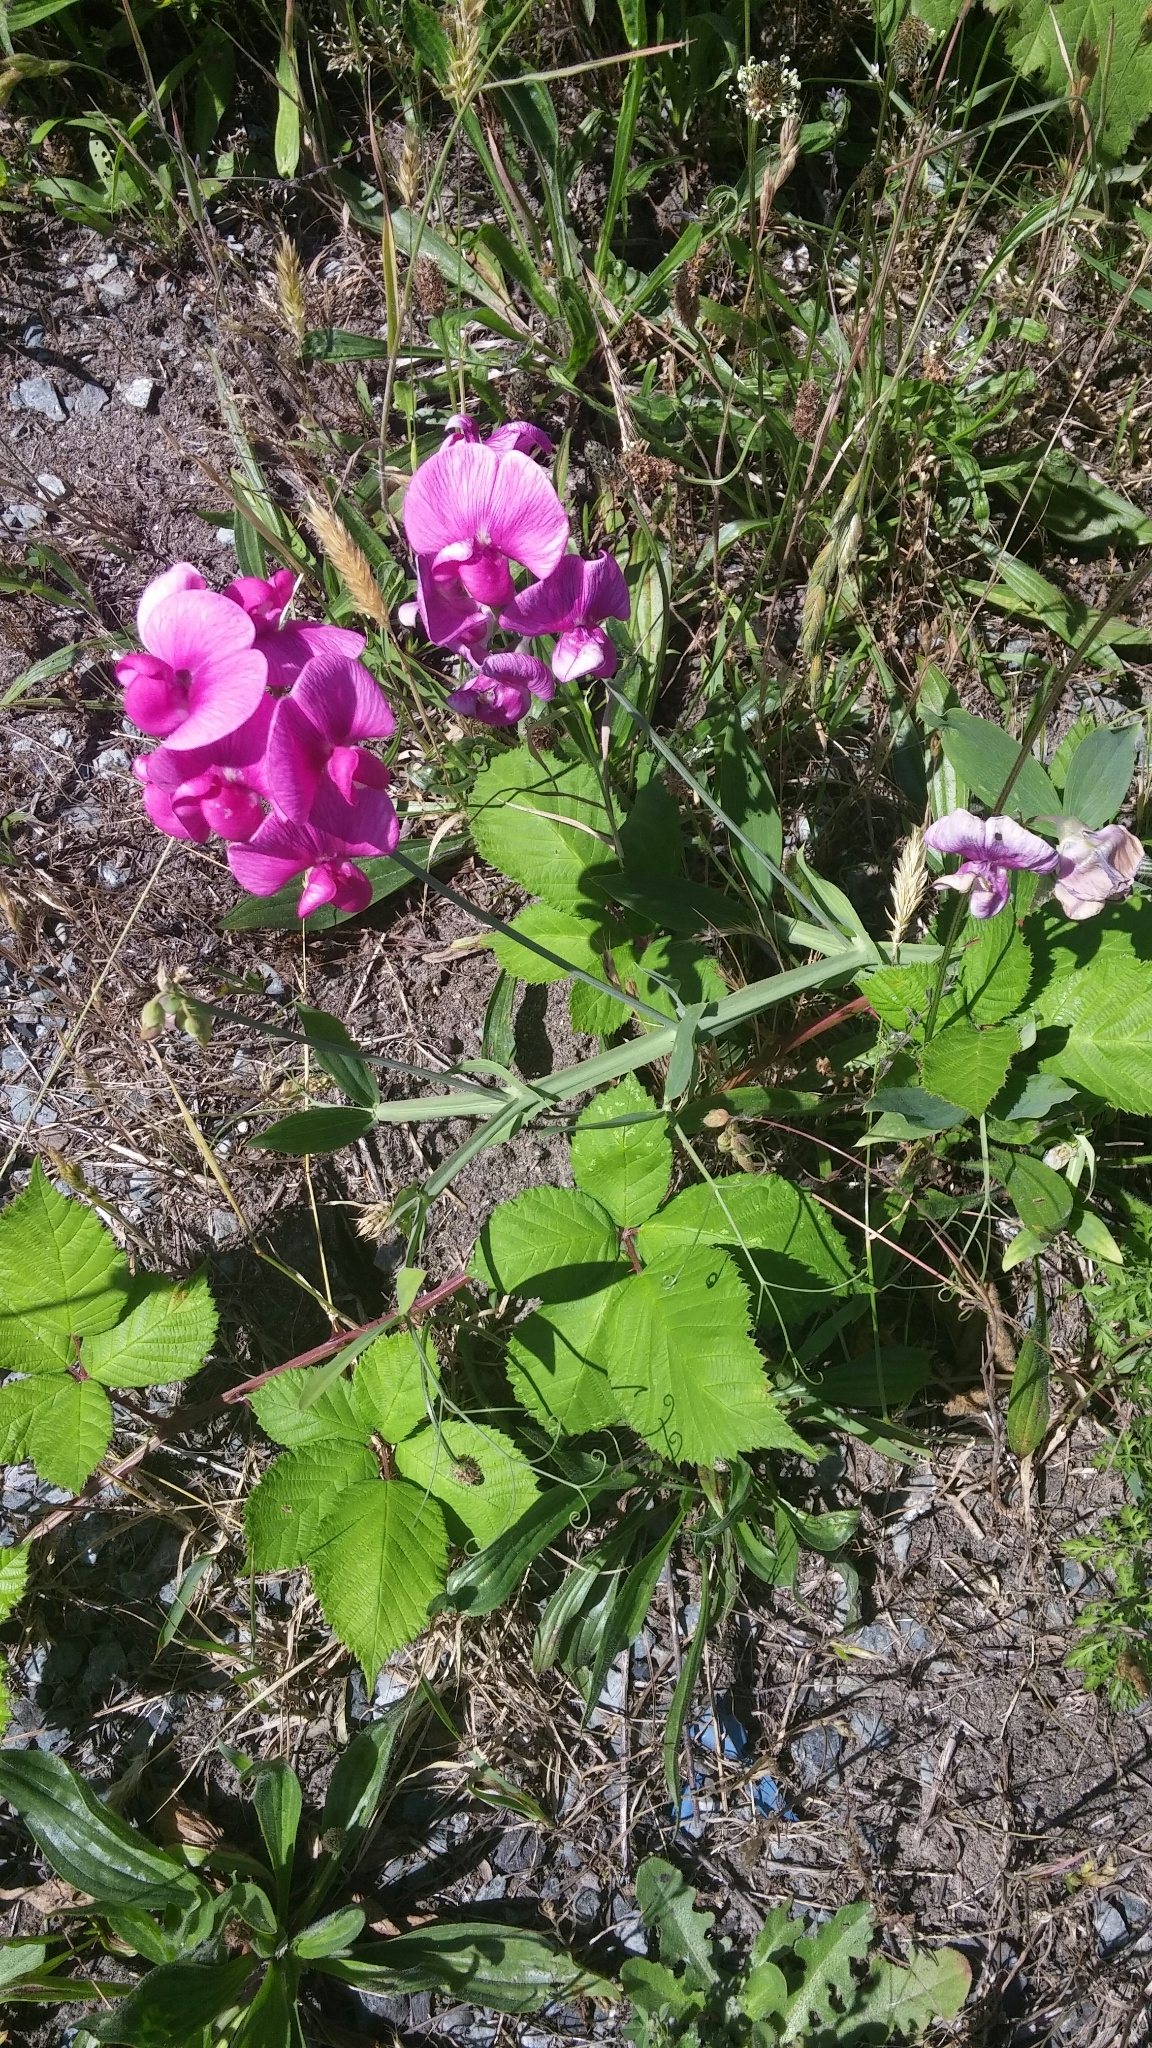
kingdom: Plantae
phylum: Tracheophyta
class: Magnoliopsida
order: Fabales
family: Fabaceae
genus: Lathyrus
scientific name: Lathyrus latifolius
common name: Perennial pea
